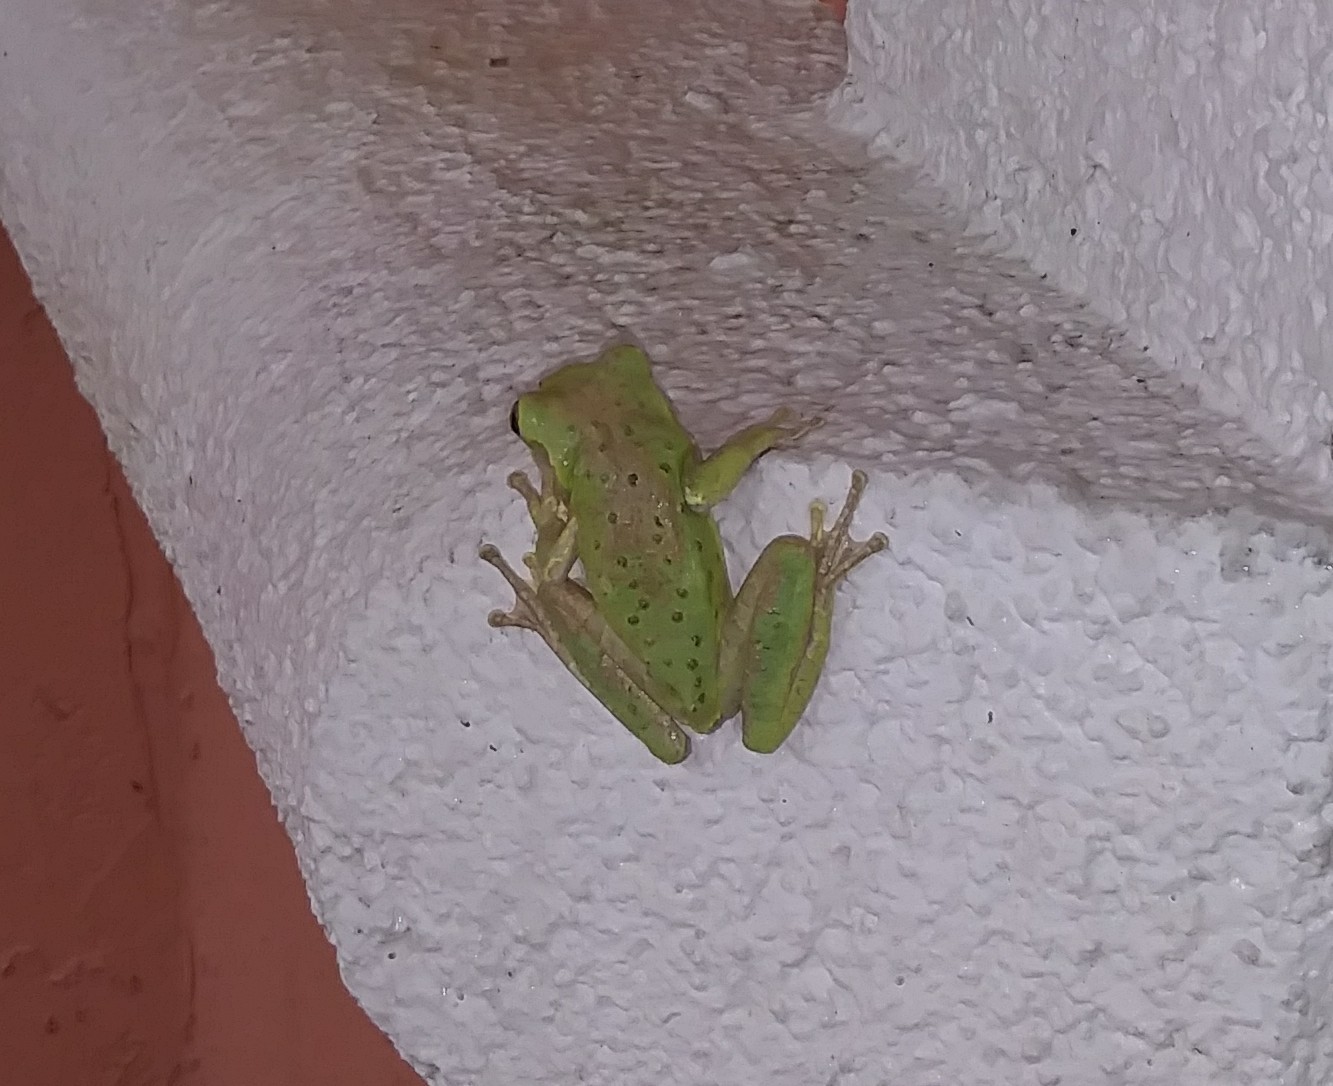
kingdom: Animalia
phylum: Chordata
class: Amphibia
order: Anura
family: Hylidae
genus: Osteopilus
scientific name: Osteopilus septentrionalis
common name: Cuban treefrog
